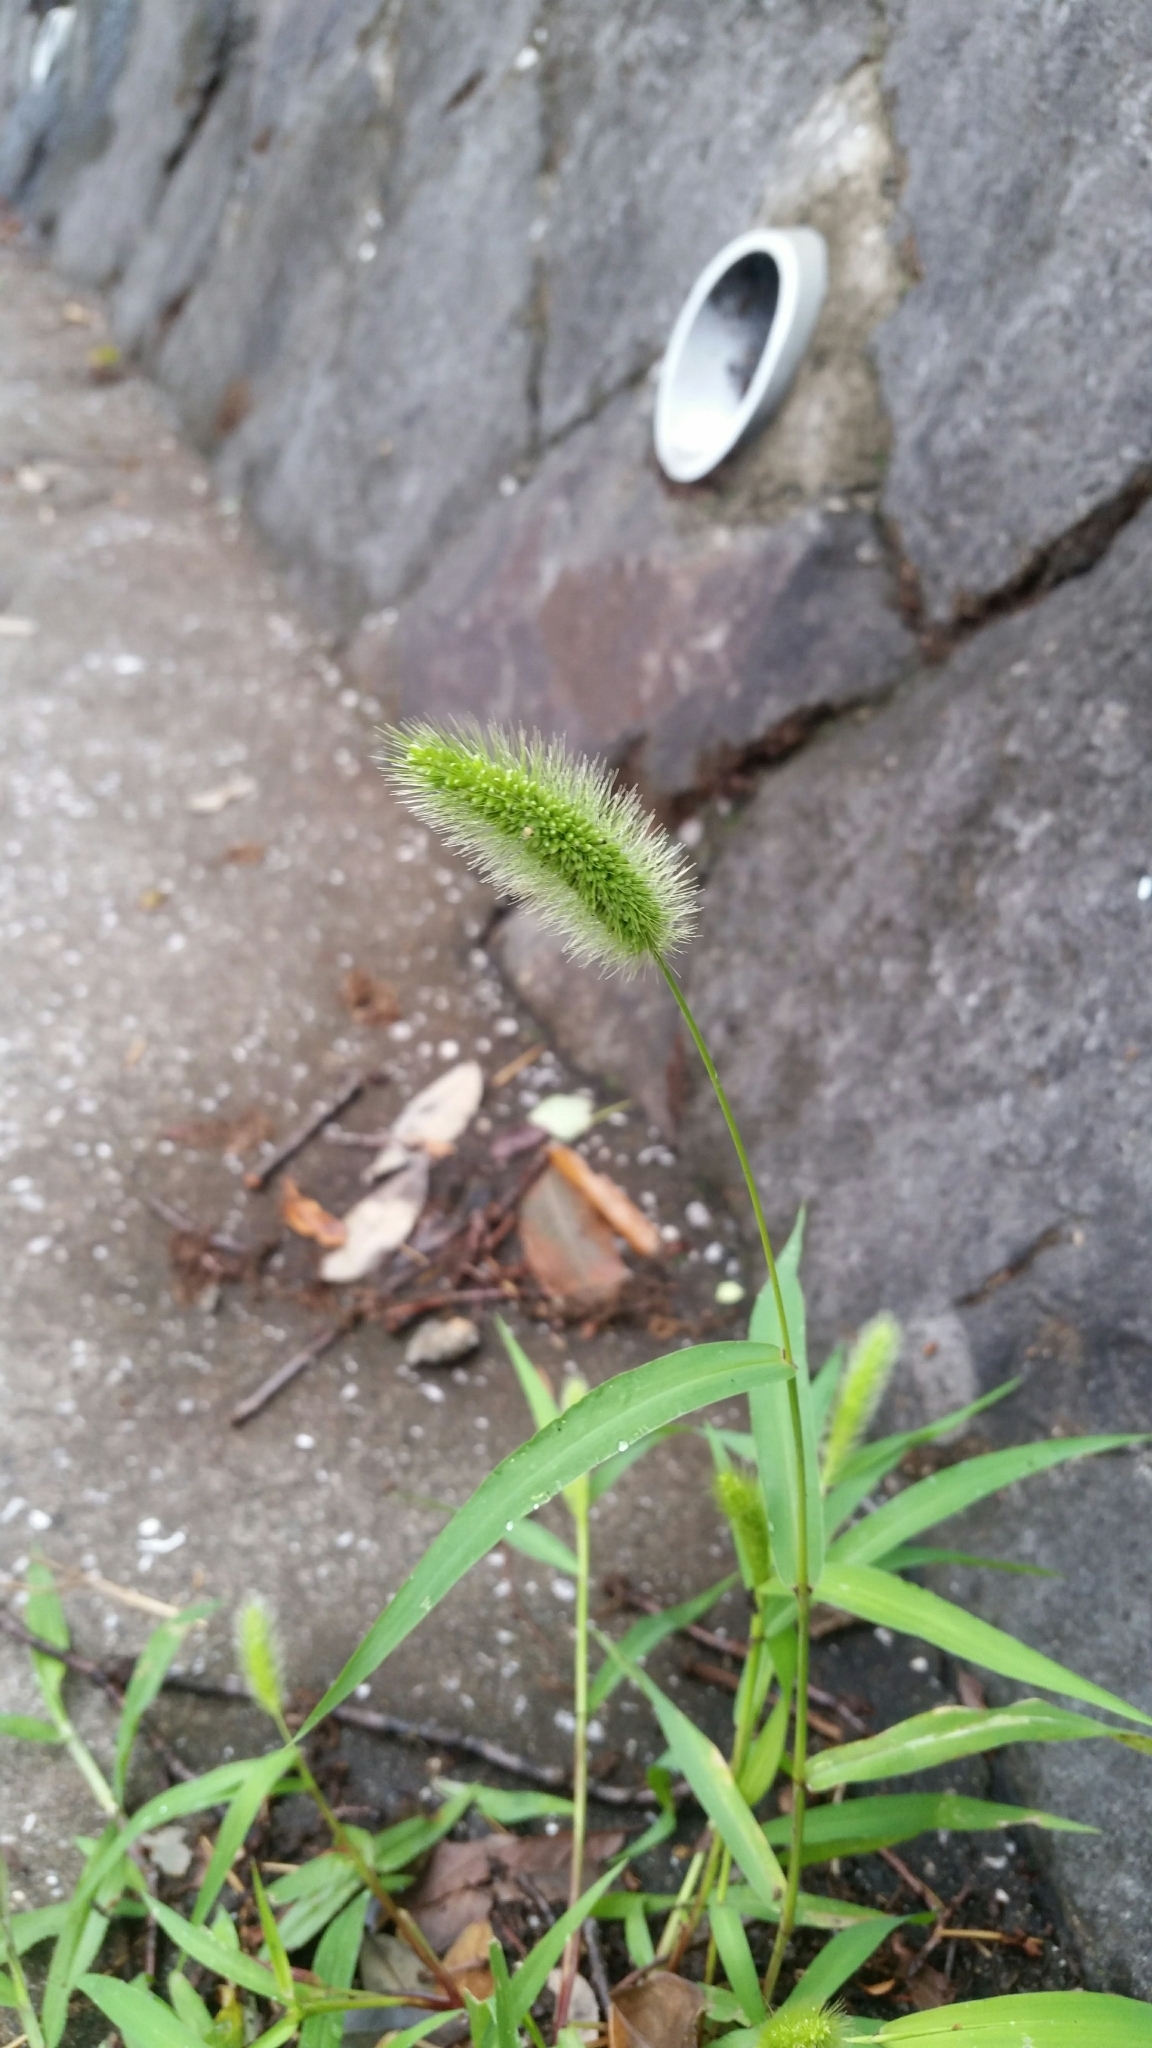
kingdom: Plantae
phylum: Tracheophyta
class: Liliopsida
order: Poales
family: Poaceae
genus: Setaria
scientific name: Setaria viridis
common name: Green bristlegrass
